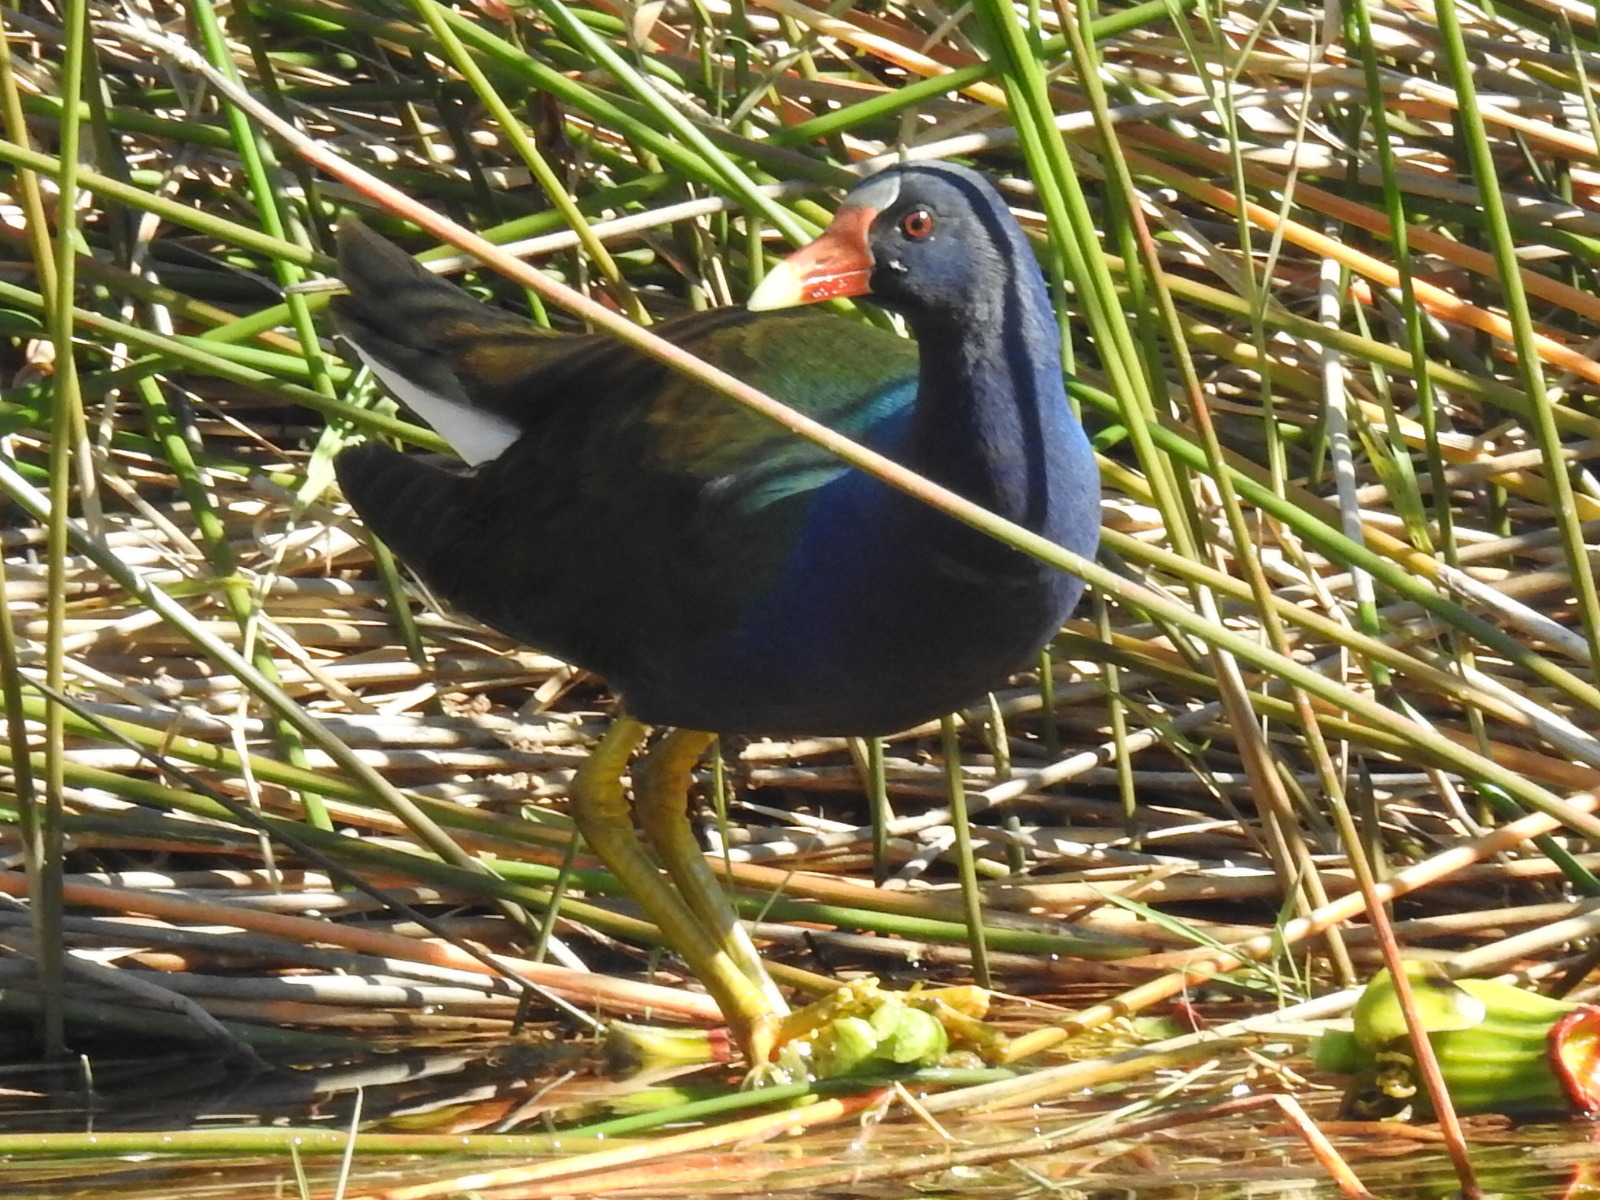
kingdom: Animalia
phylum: Chordata
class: Aves
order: Gruiformes
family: Rallidae
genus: Porphyrio
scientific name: Porphyrio martinica
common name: Purple gallinule
